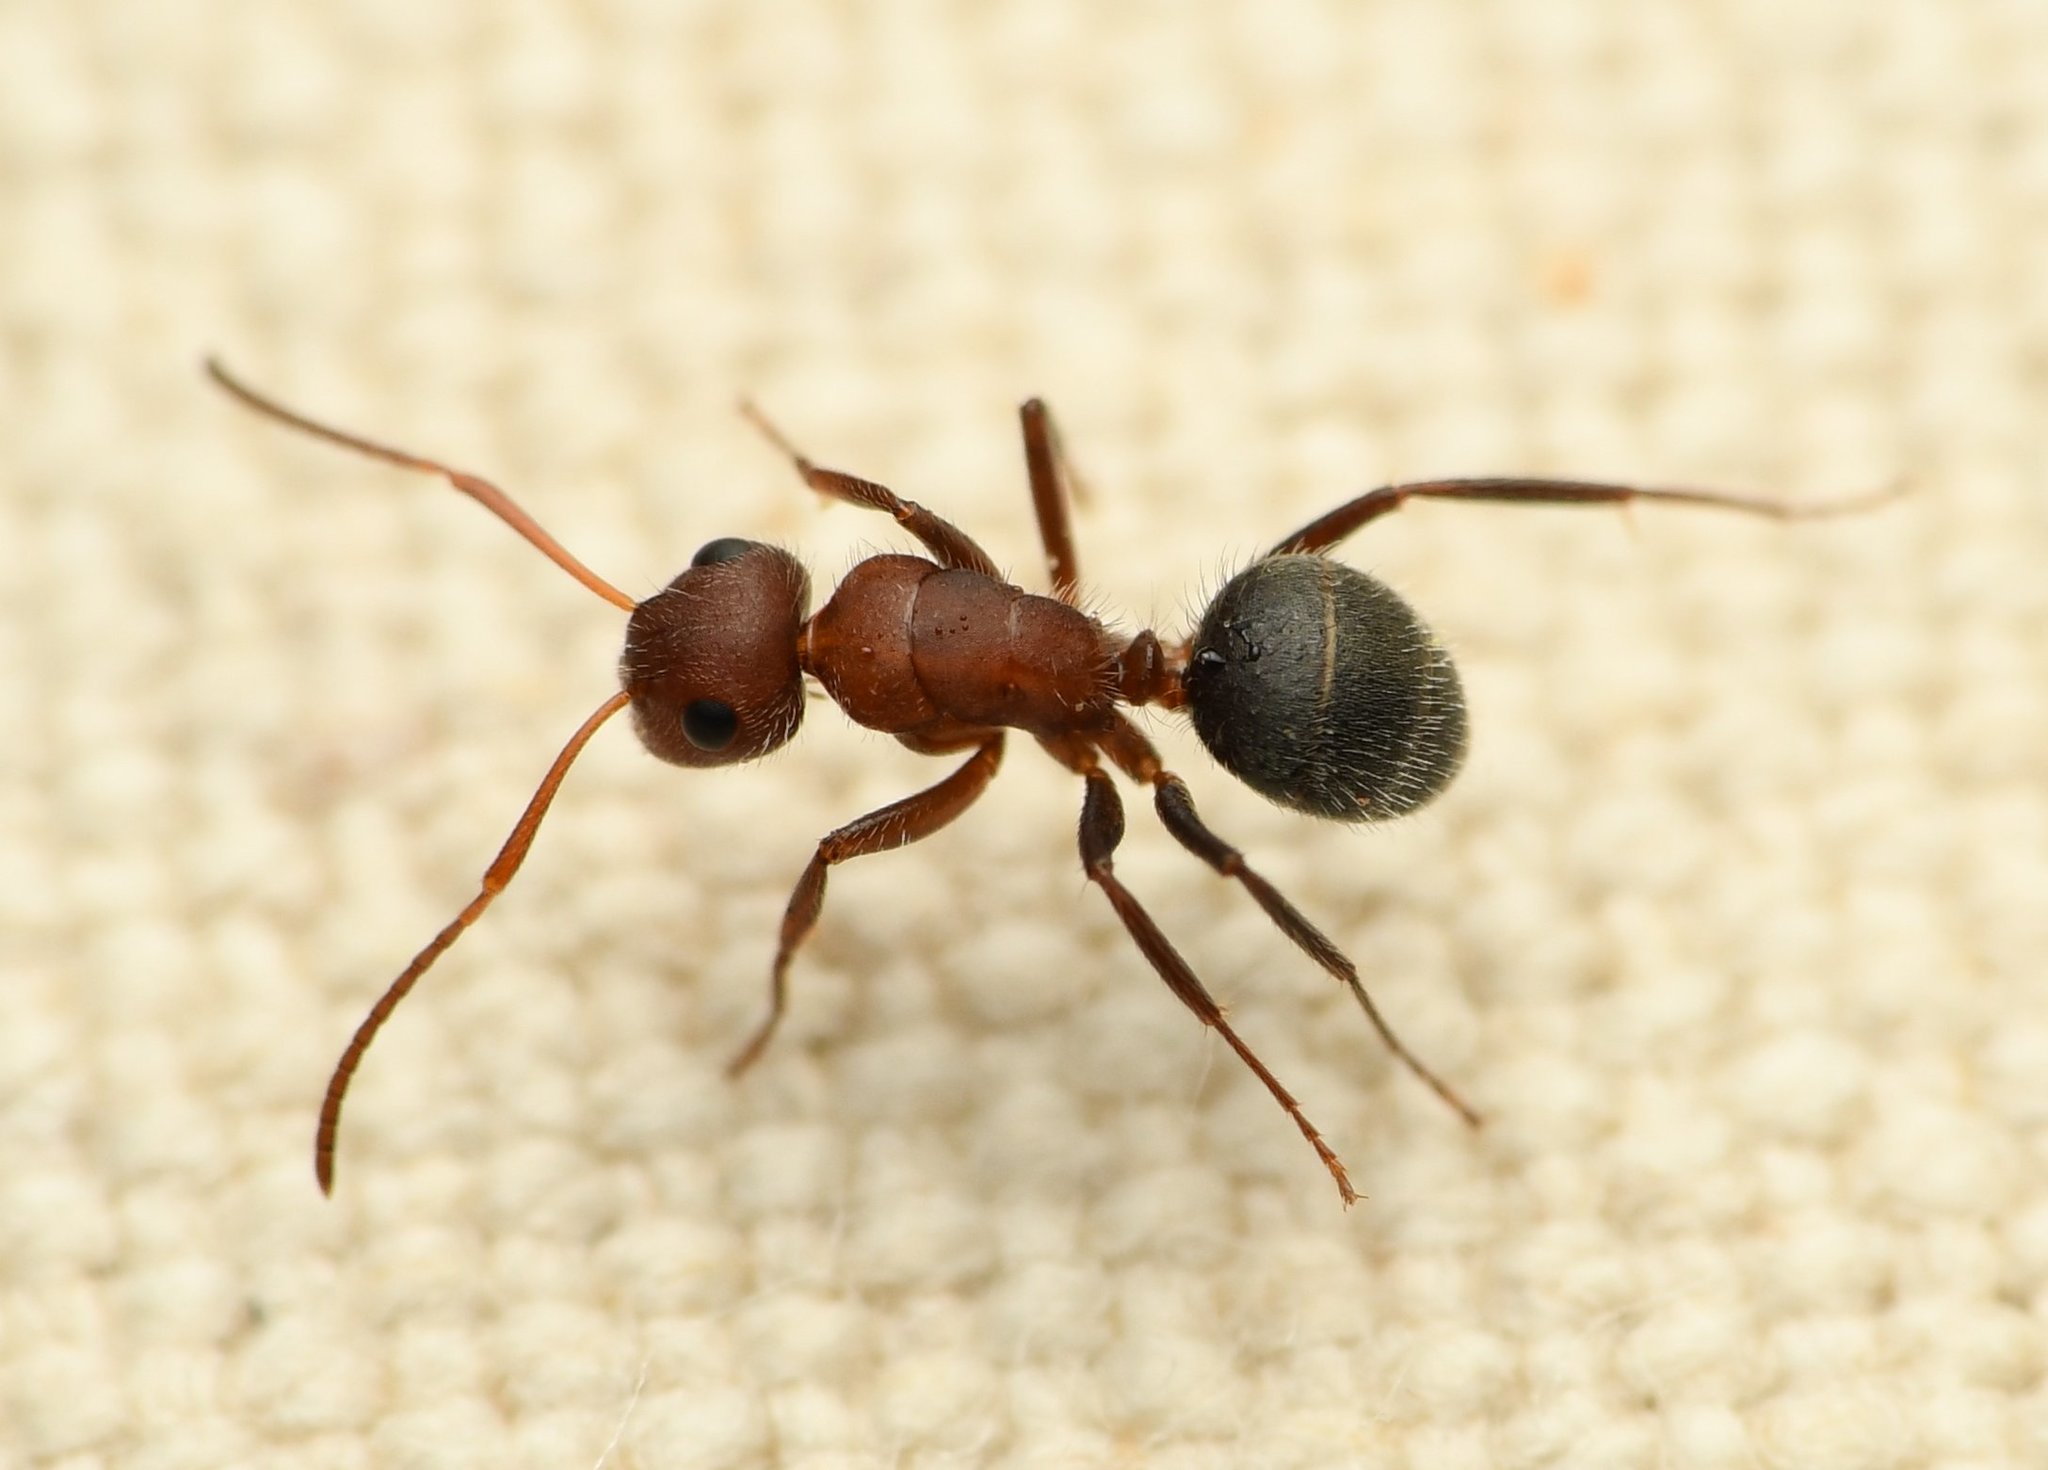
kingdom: Animalia
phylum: Arthropoda
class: Insecta
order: Hymenoptera
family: Formicidae
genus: Camponotus
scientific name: Camponotus planatus
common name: Compact carpenter ant
